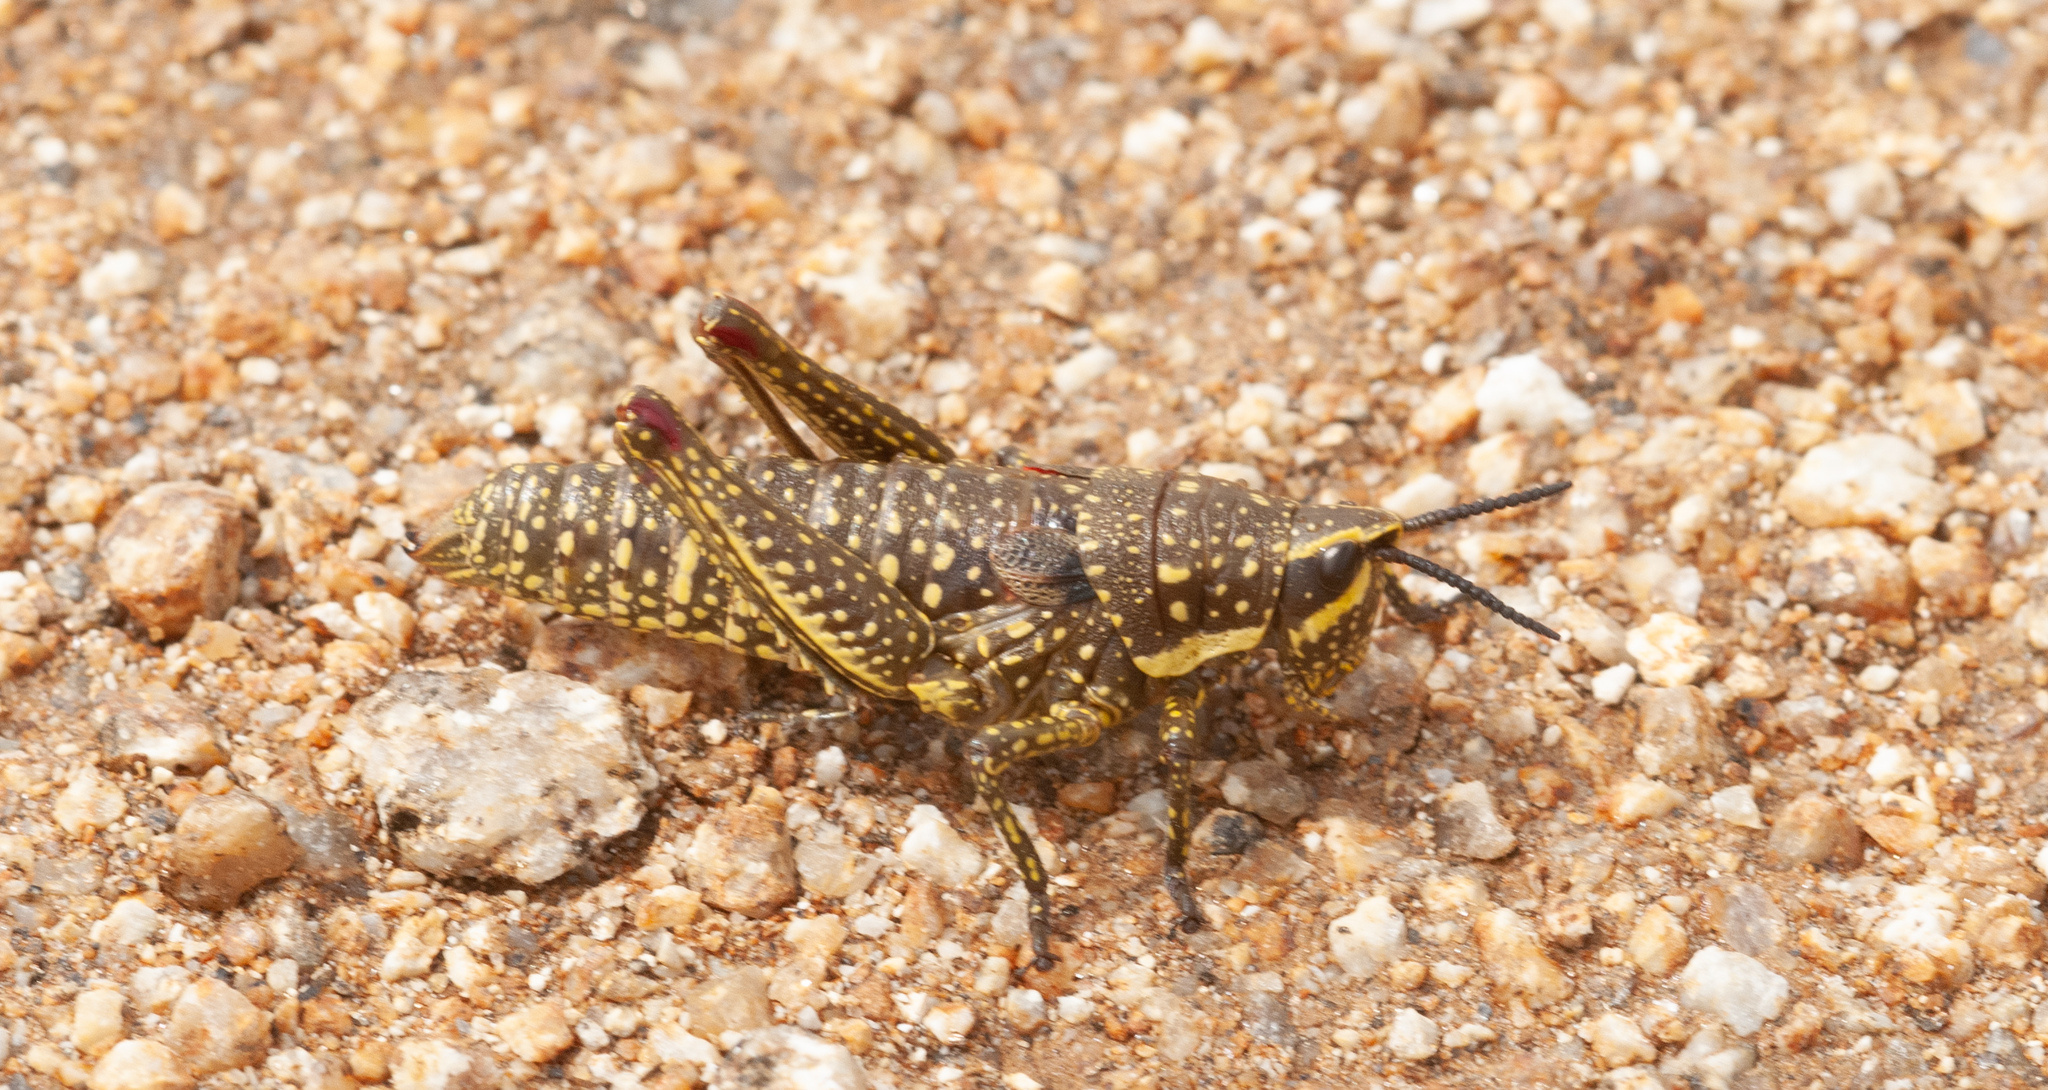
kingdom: Animalia
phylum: Arthropoda
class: Insecta
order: Orthoptera
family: Pyrgomorphidae
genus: Monistria
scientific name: Monistria concinna
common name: Southern pyrgomorph
